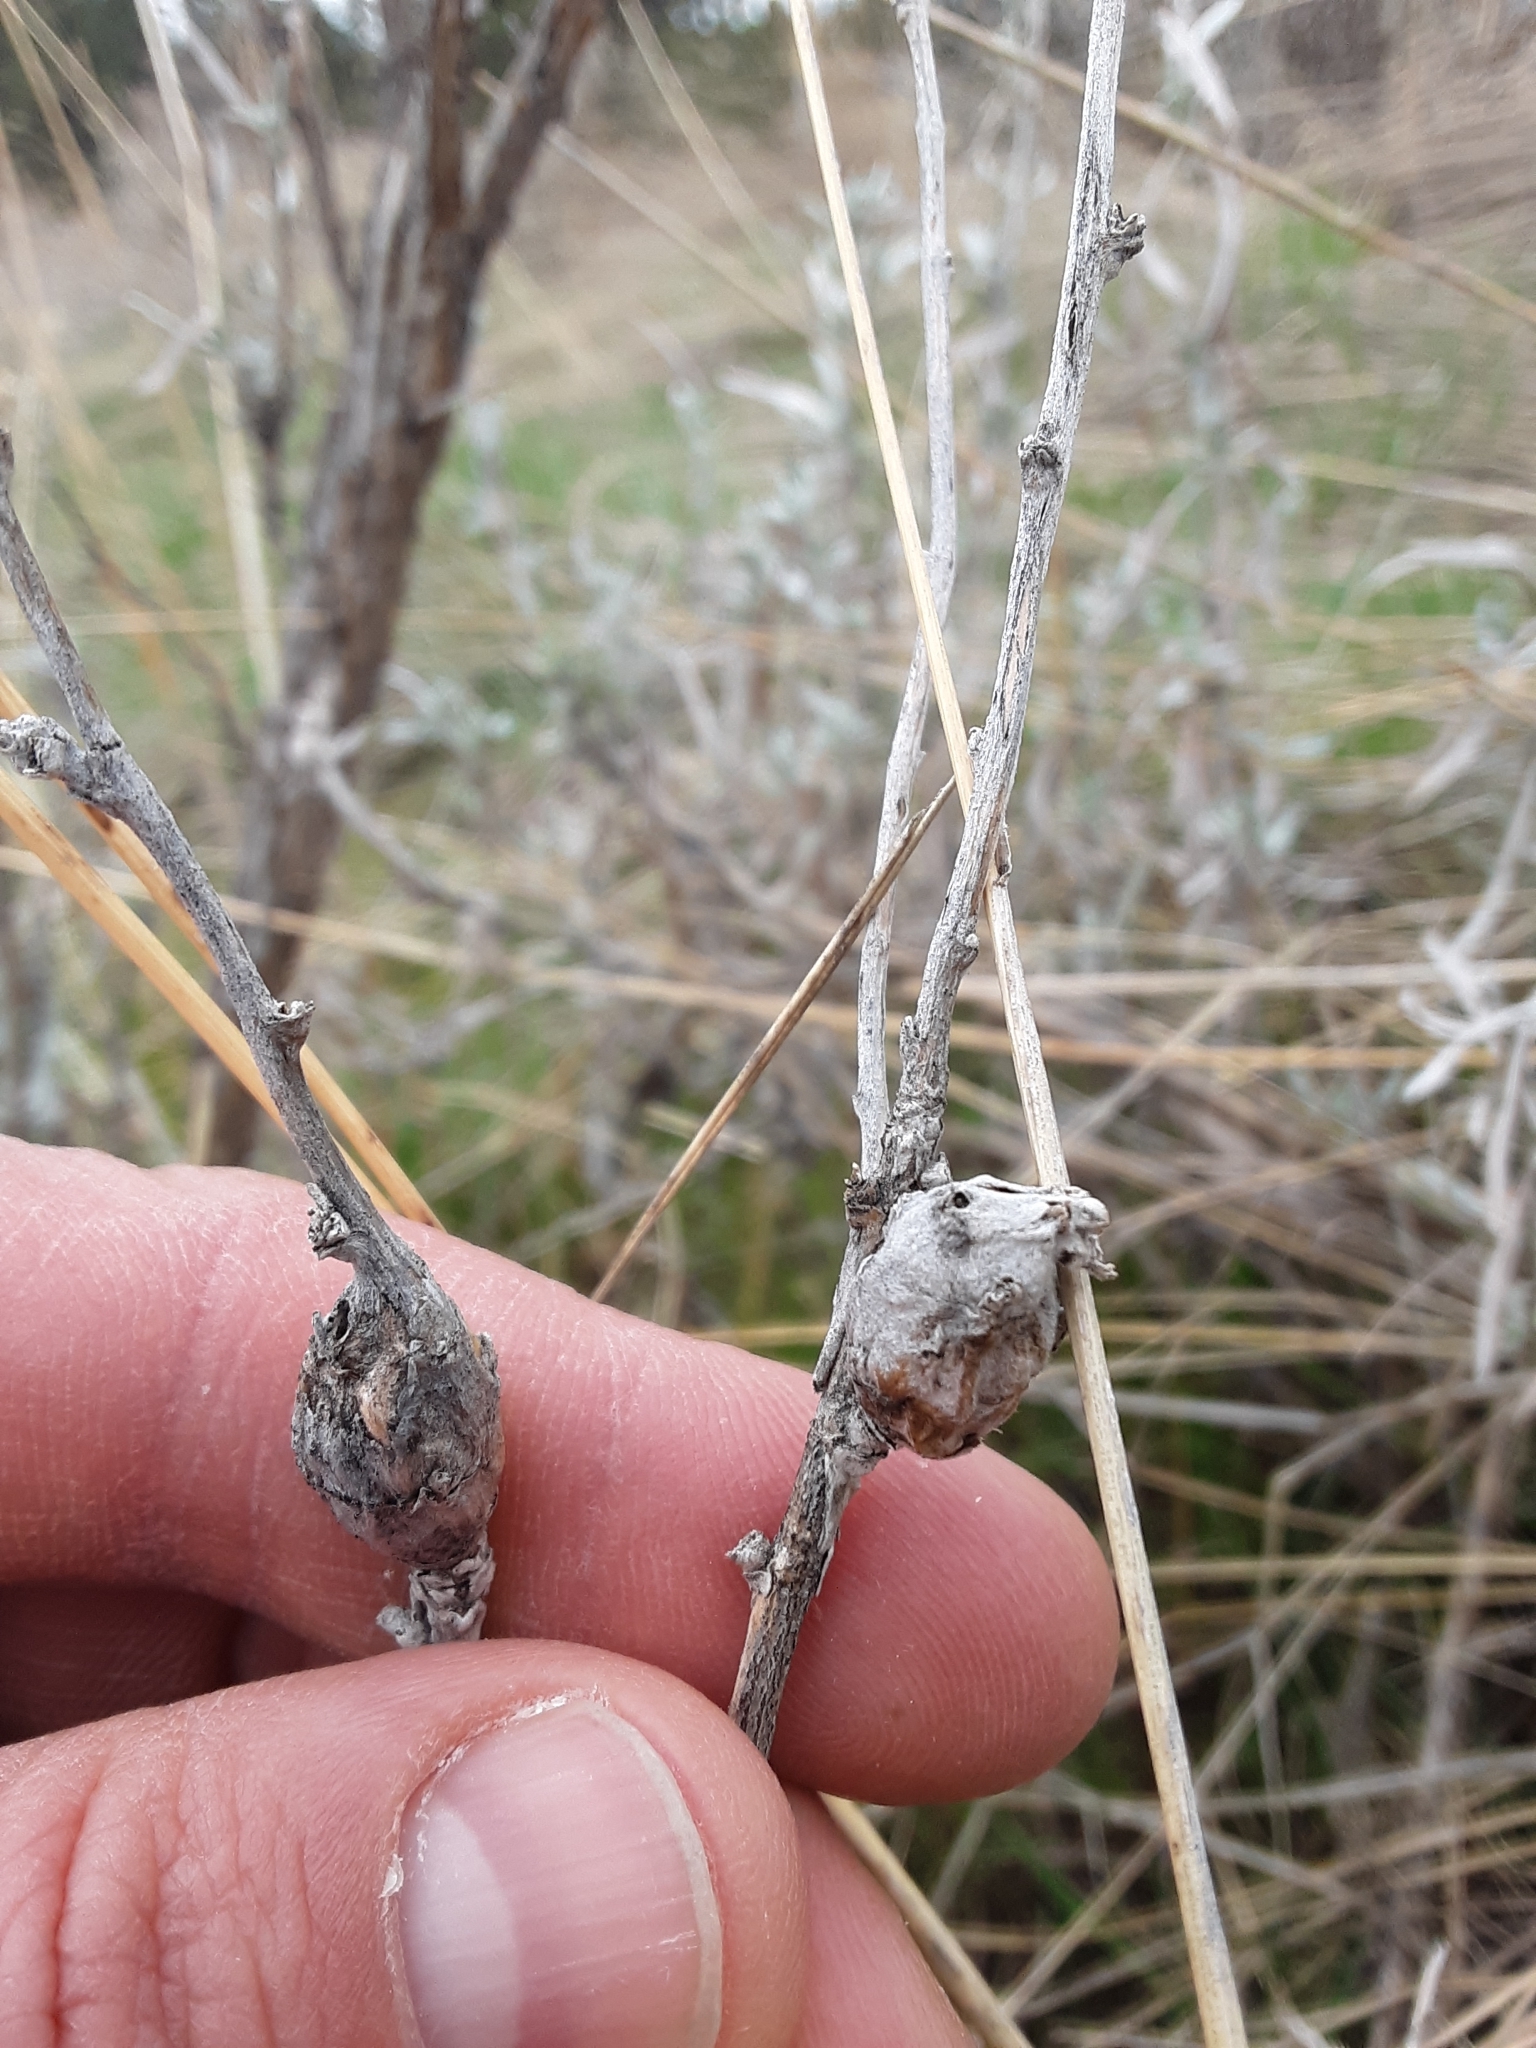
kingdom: Animalia
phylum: Arthropoda
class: Insecta
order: Diptera
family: Tephritidae
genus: Eutreta
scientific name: Eutreta diana
